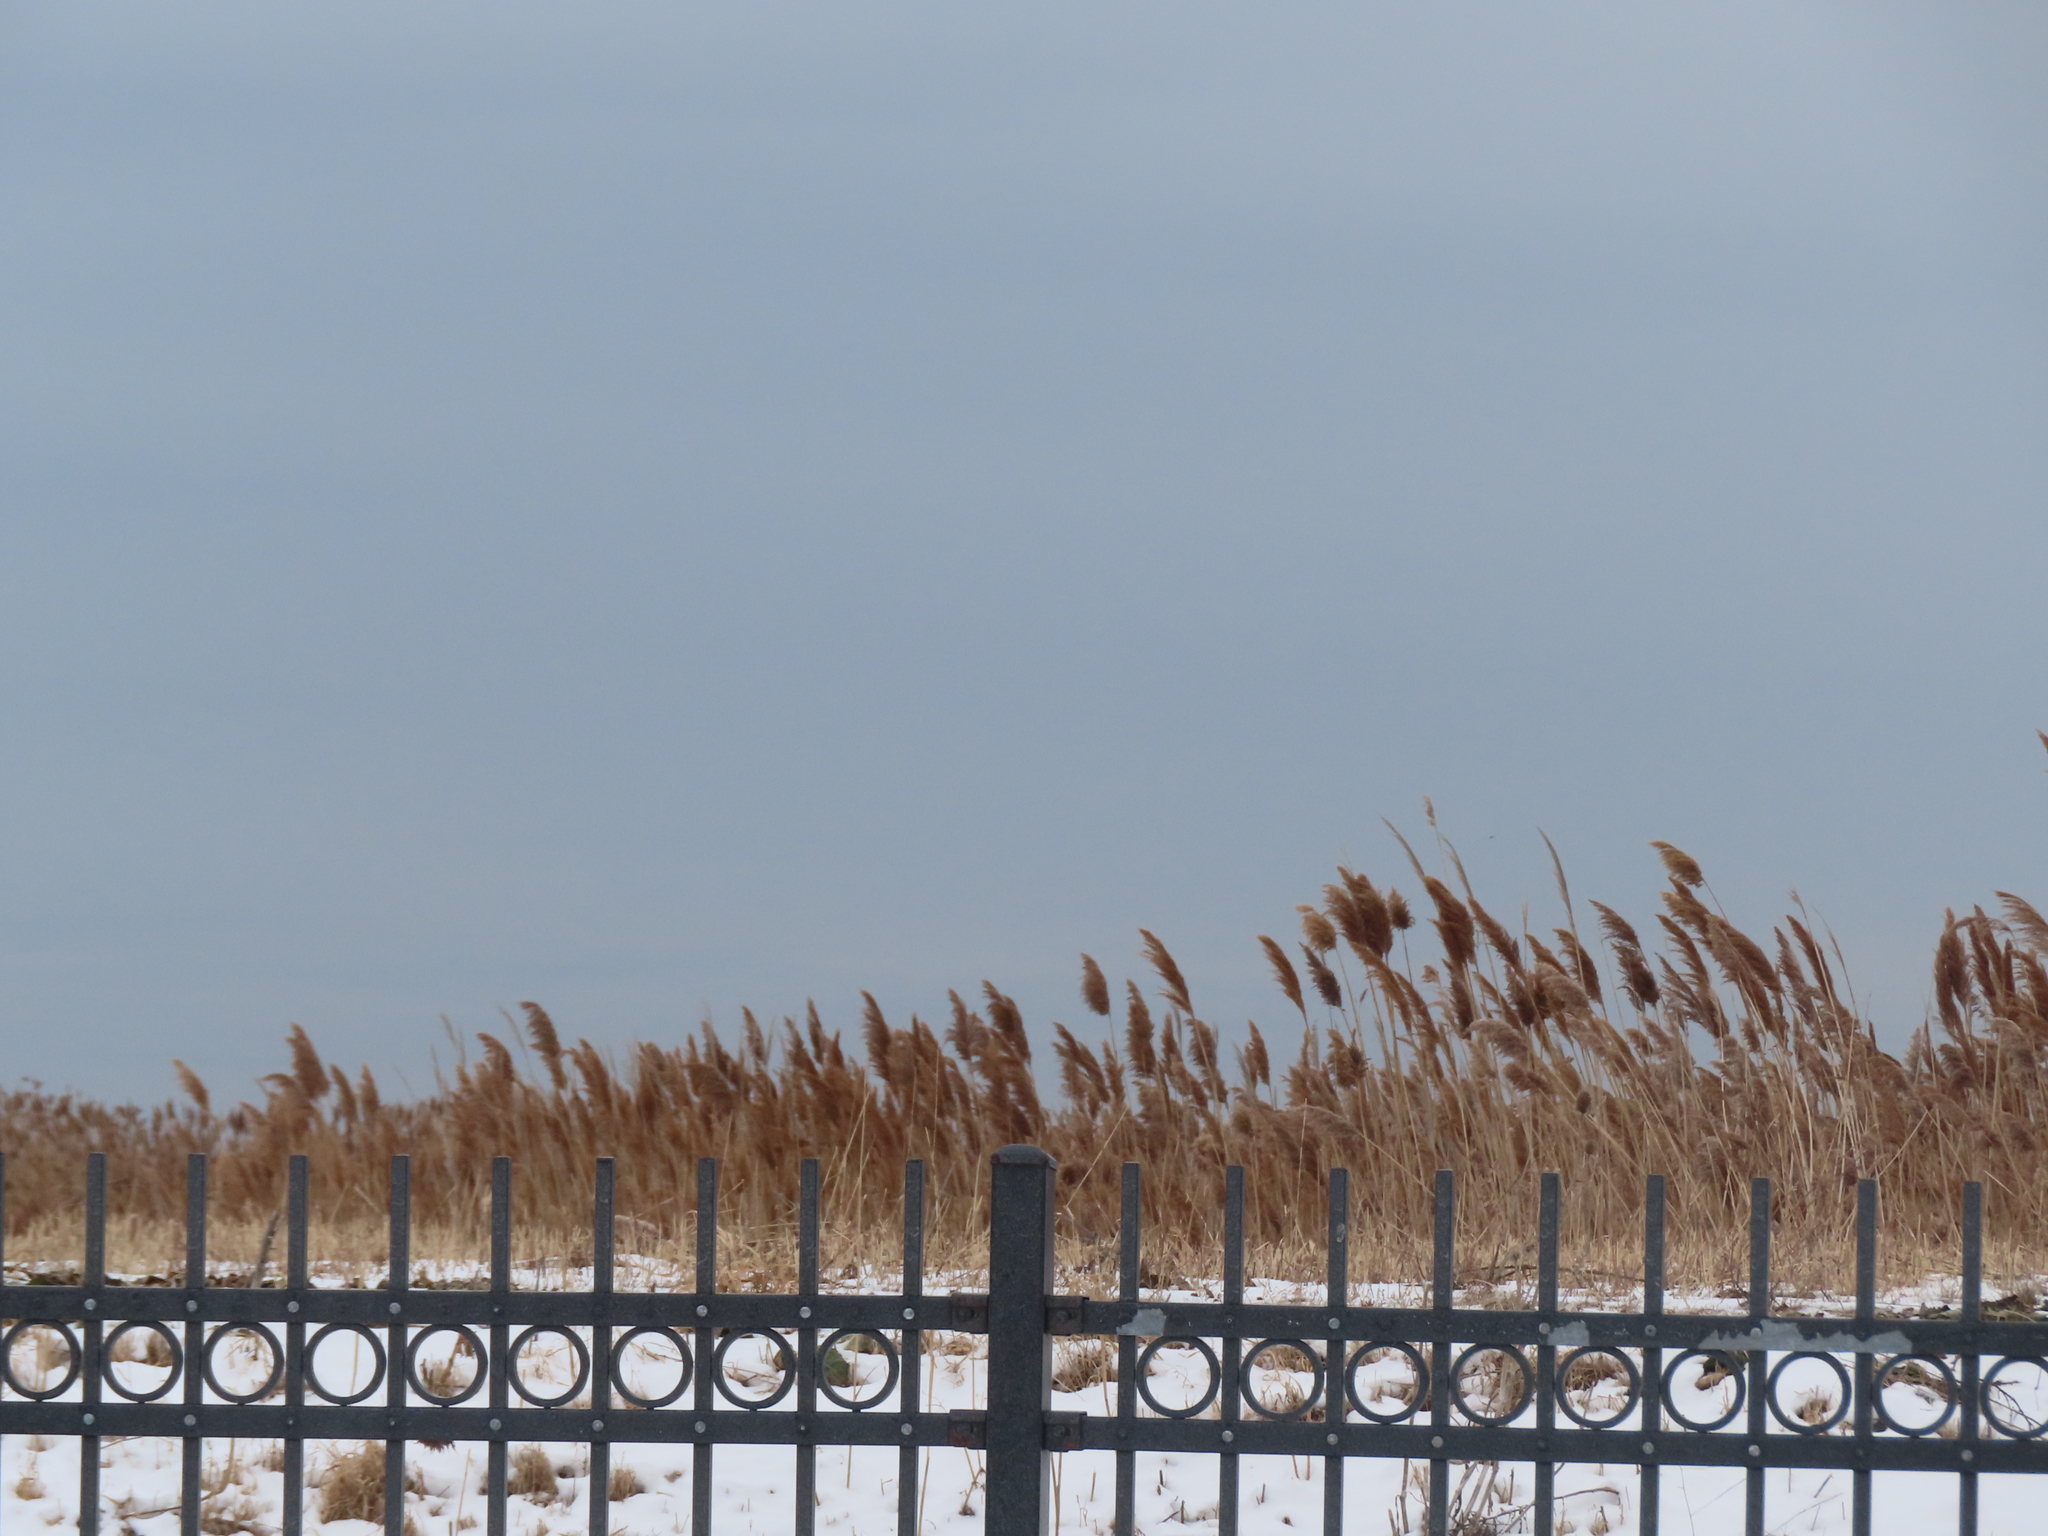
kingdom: Plantae
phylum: Tracheophyta
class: Liliopsida
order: Poales
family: Poaceae
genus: Phragmites
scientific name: Phragmites australis
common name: Common reed
